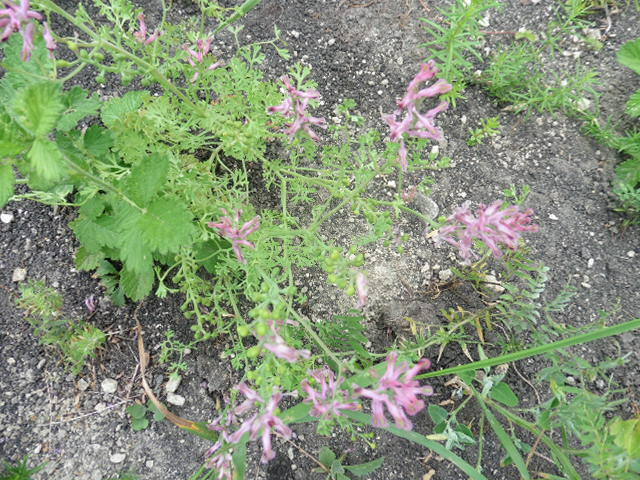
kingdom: Plantae
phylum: Tracheophyta
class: Magnoliopsida
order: Ranunculales
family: Papaveraceae
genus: Fumaria
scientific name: Fumaria officinalis
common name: Common fumitory
